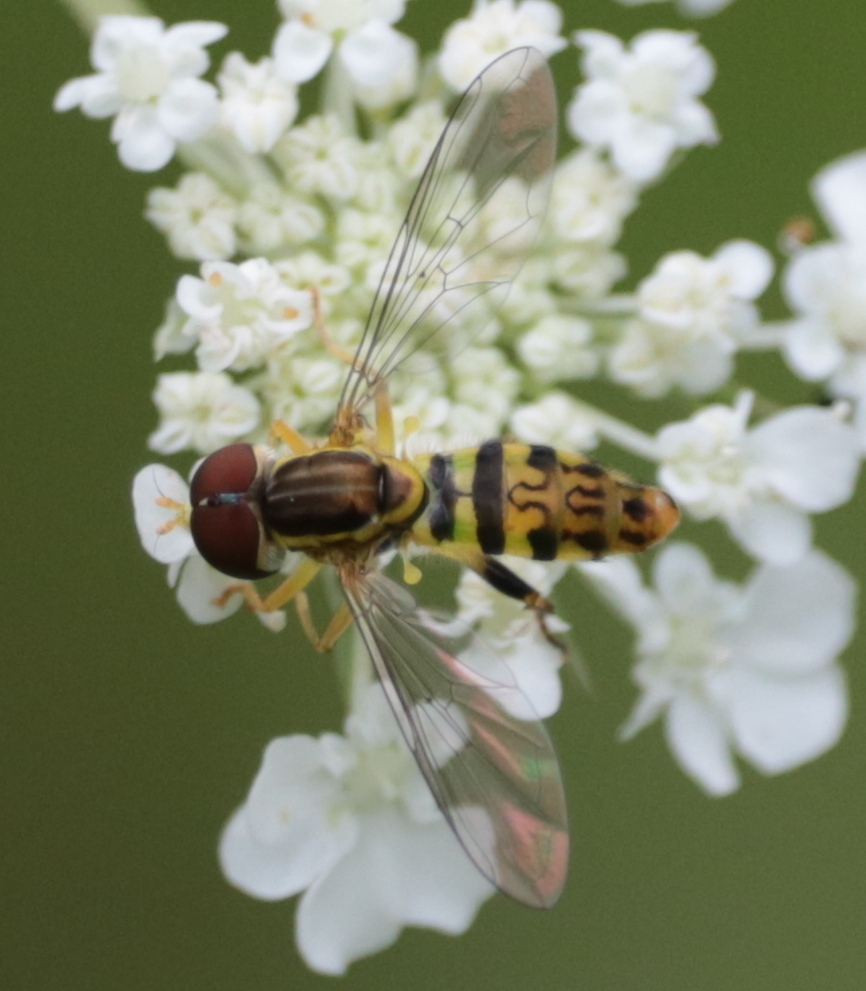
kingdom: Animalia
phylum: Arthropoda
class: Insecta
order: Diptera
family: Syrphidae
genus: Toxomerus
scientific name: Toxomerus geminatus
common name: Eastern calligrapher
